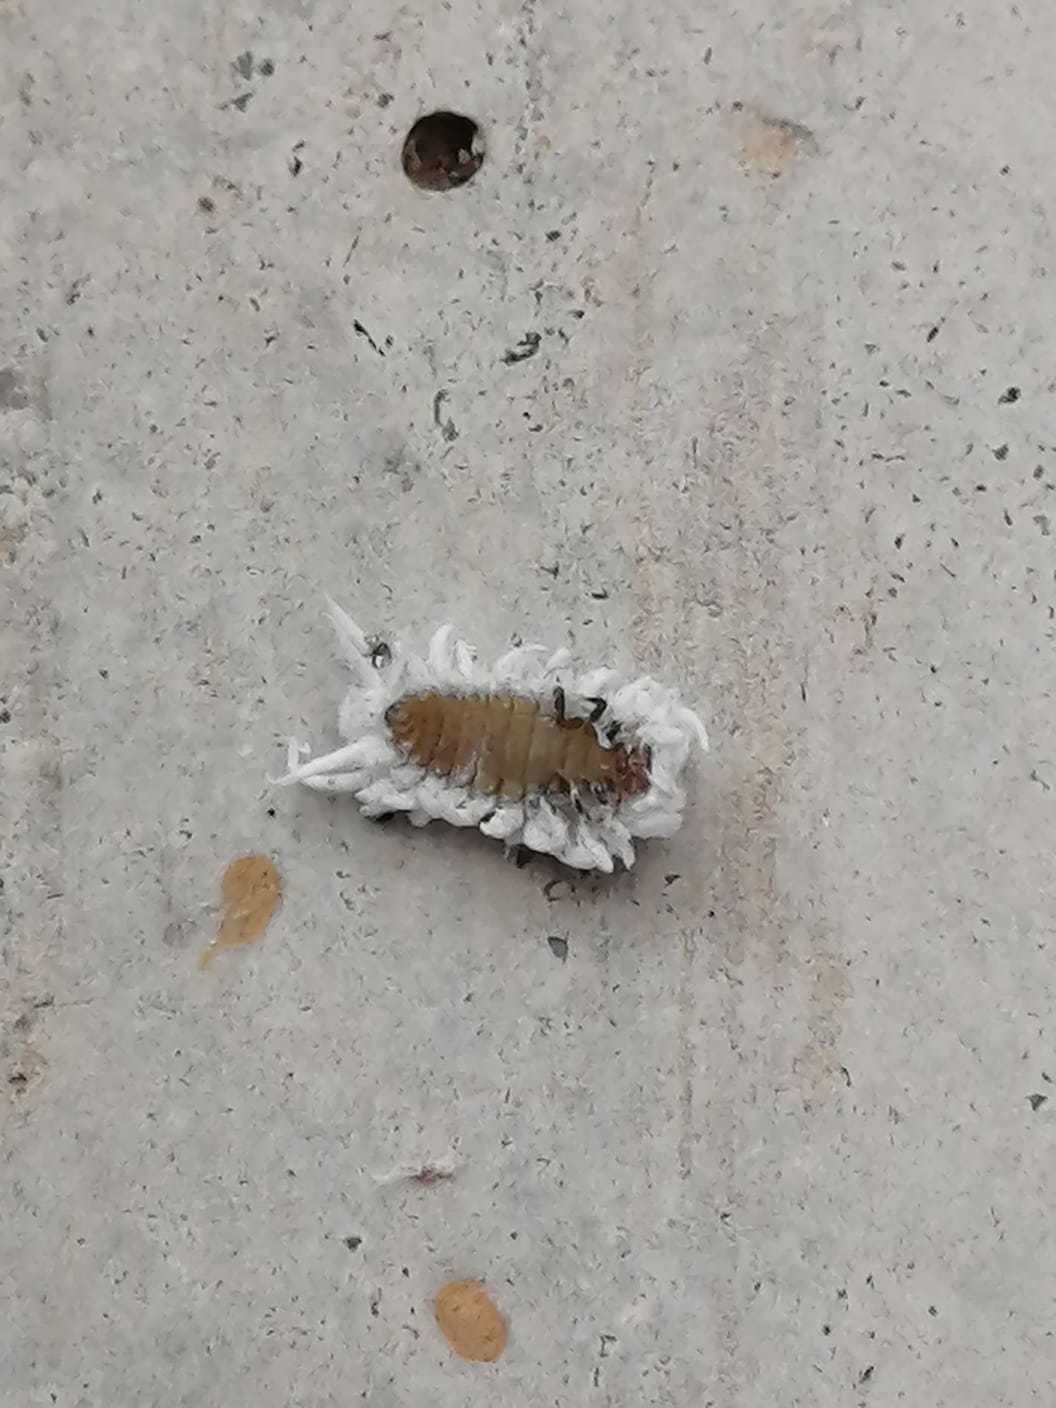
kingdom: Animalia
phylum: Arthropoda
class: Insecta
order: Coleoptera
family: Coccinellidae
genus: Cryptolaemus
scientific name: Cryptolaemus montrouzieri
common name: Mealybug destroyer
